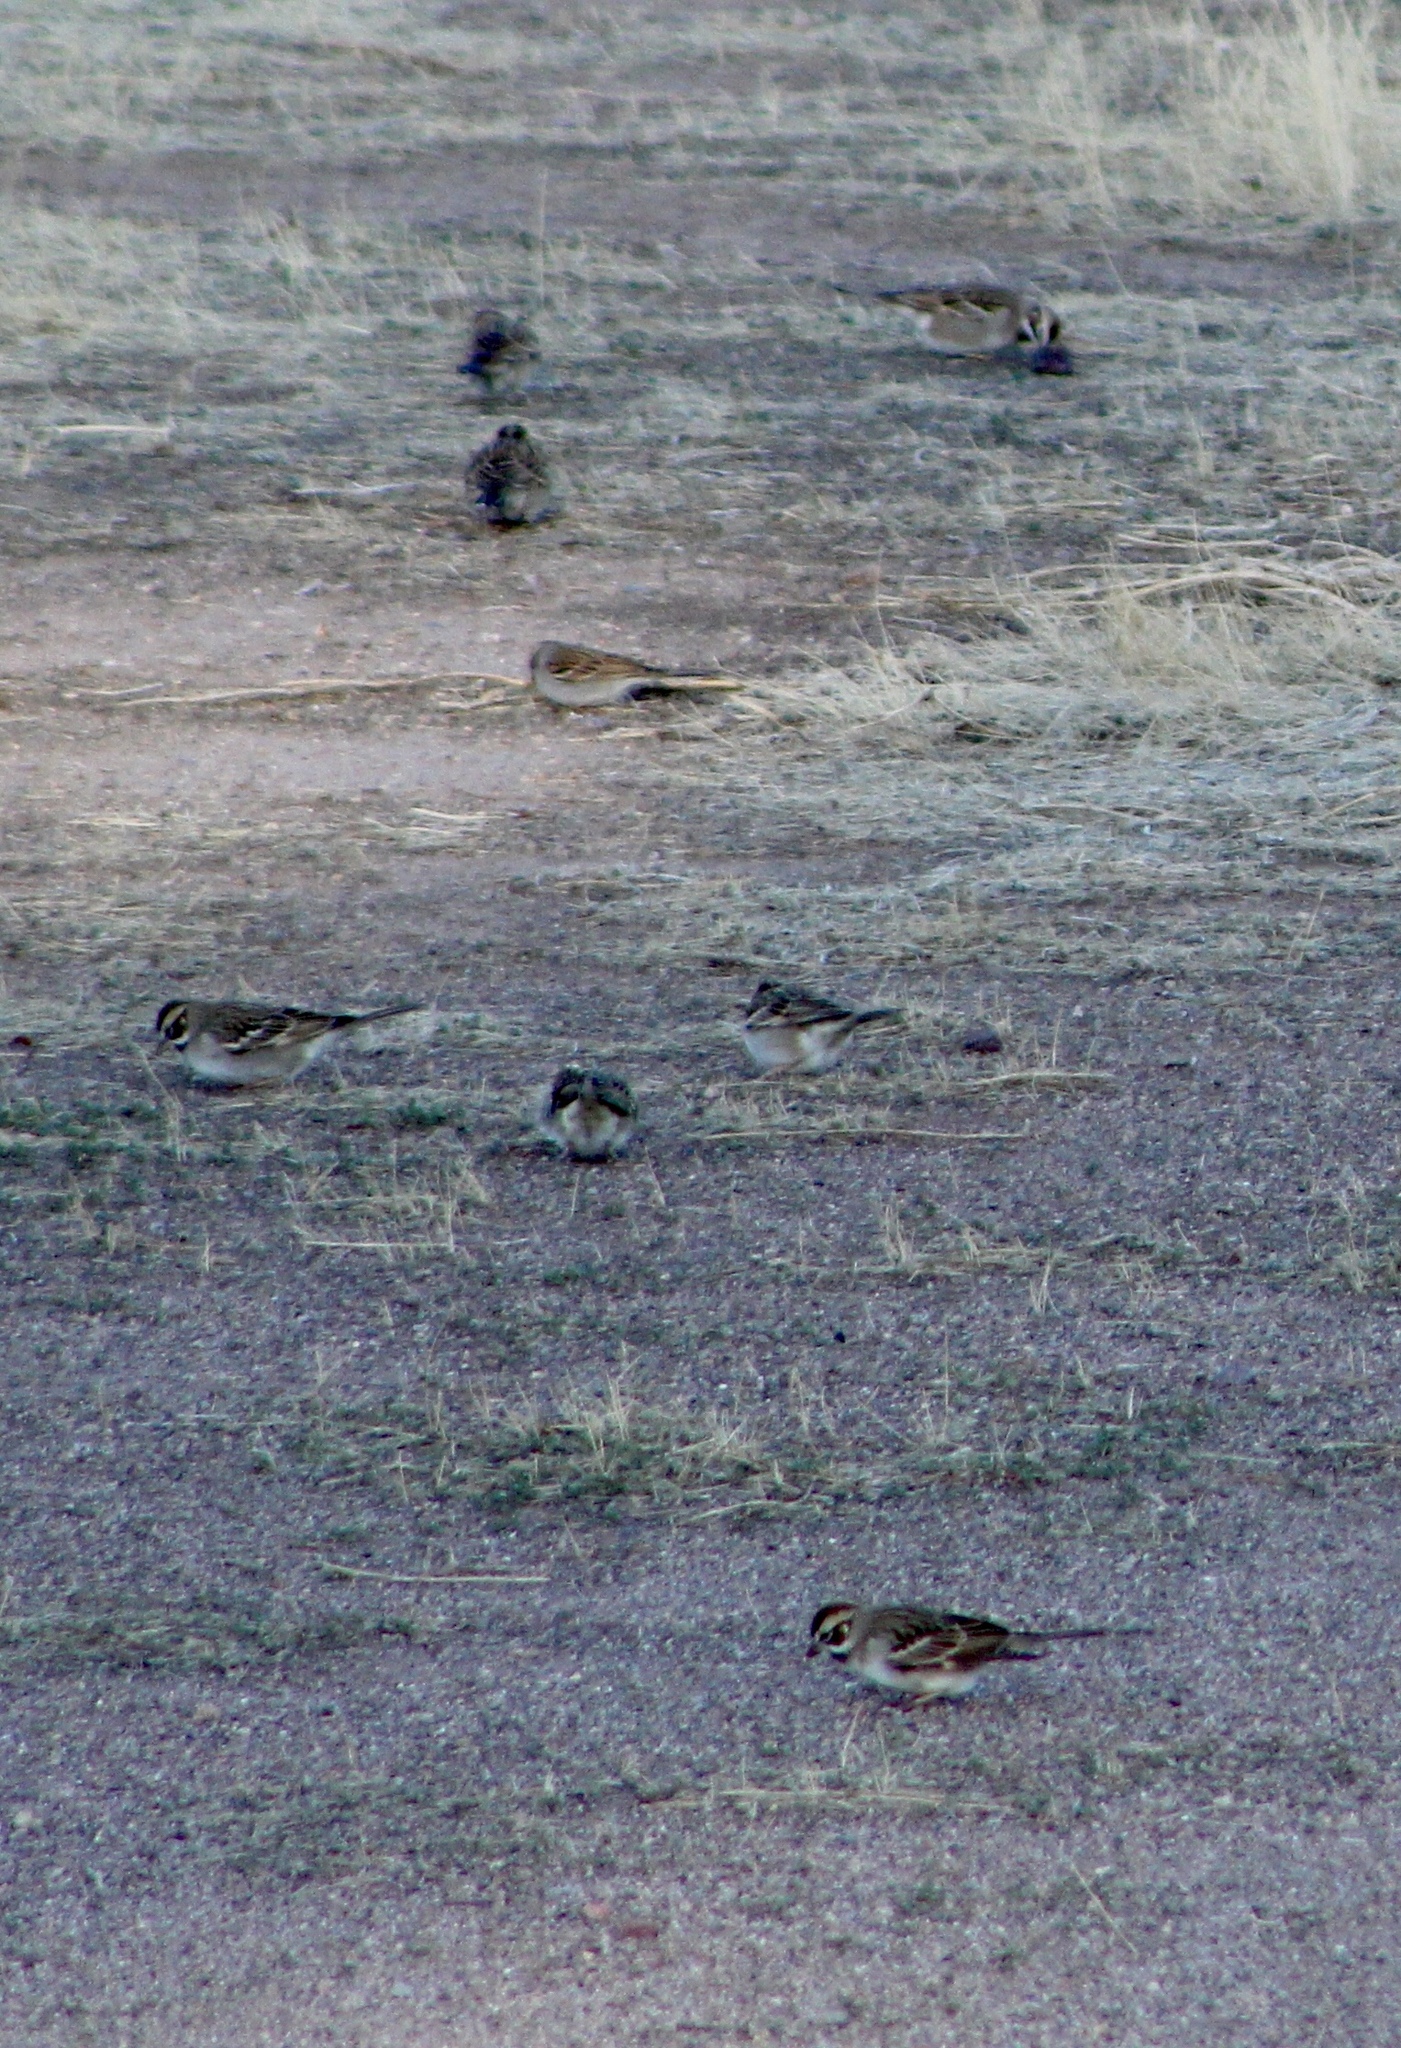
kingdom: Animalia
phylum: Chordata
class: Aves
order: Passeriformes
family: Passerellidae
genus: Chondestes
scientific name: Chondestes grammacus
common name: Lark sparrow
